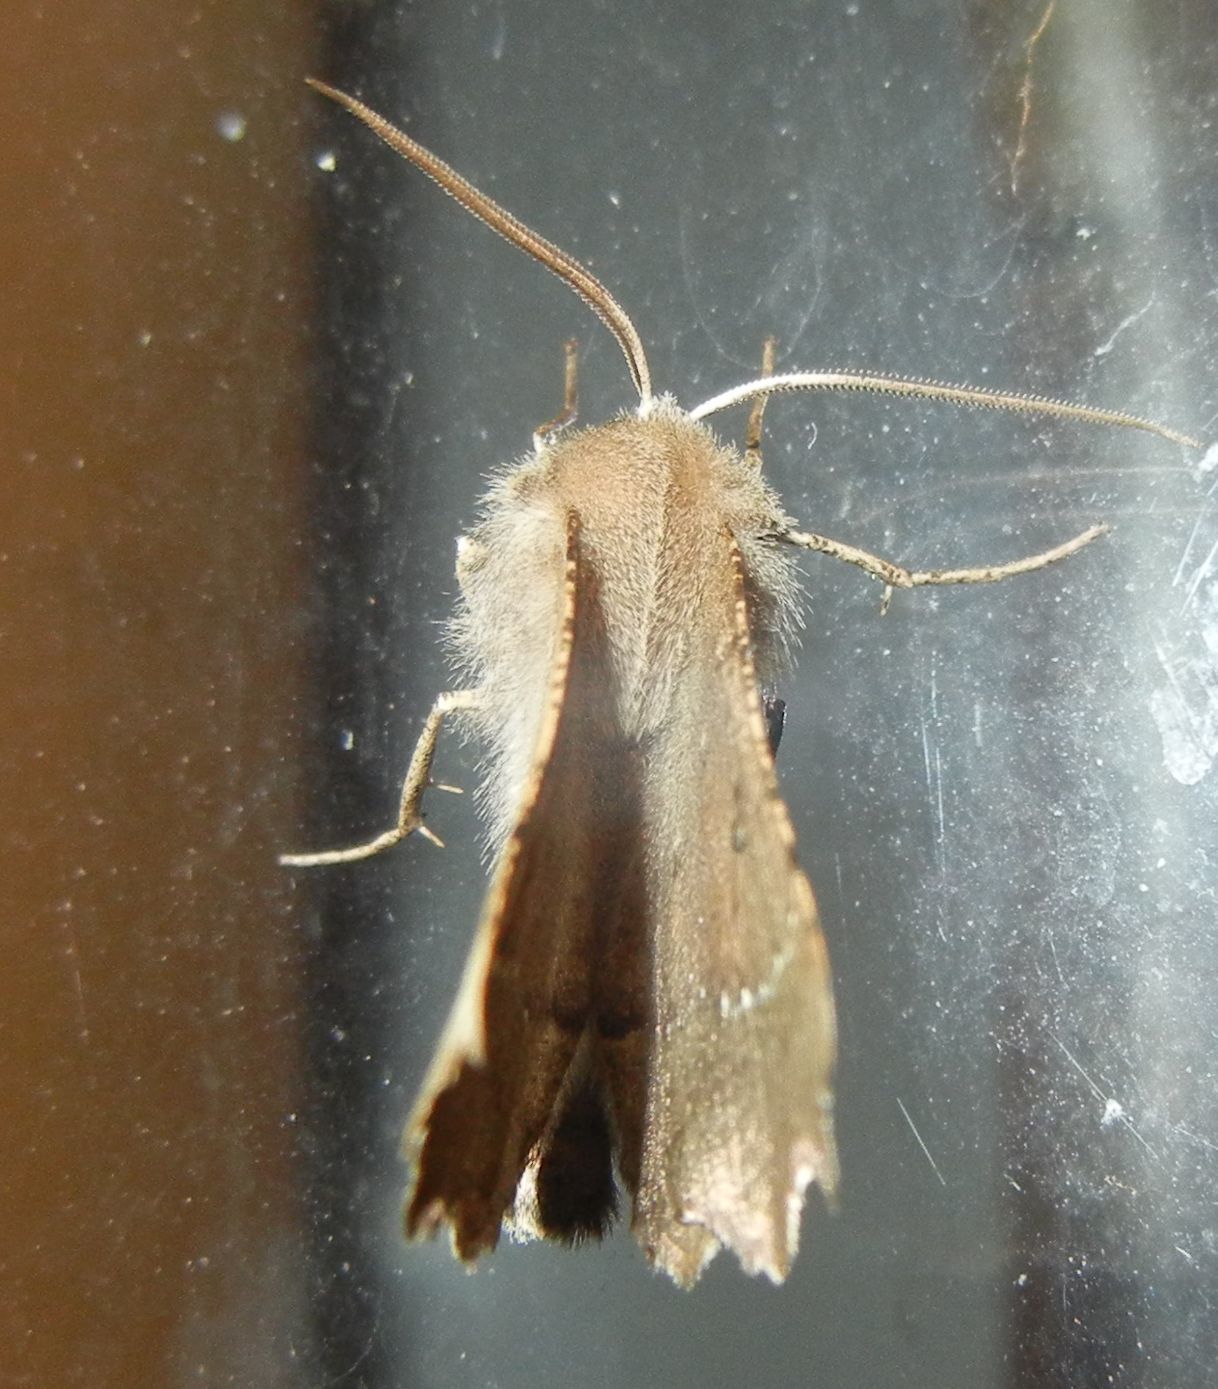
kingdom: Animalia
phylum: Arthropoda
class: Insecta
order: Lepidoptera
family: Geometridae
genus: Odontopera
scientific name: Odontopera bidentata
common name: Scalloped hazel
